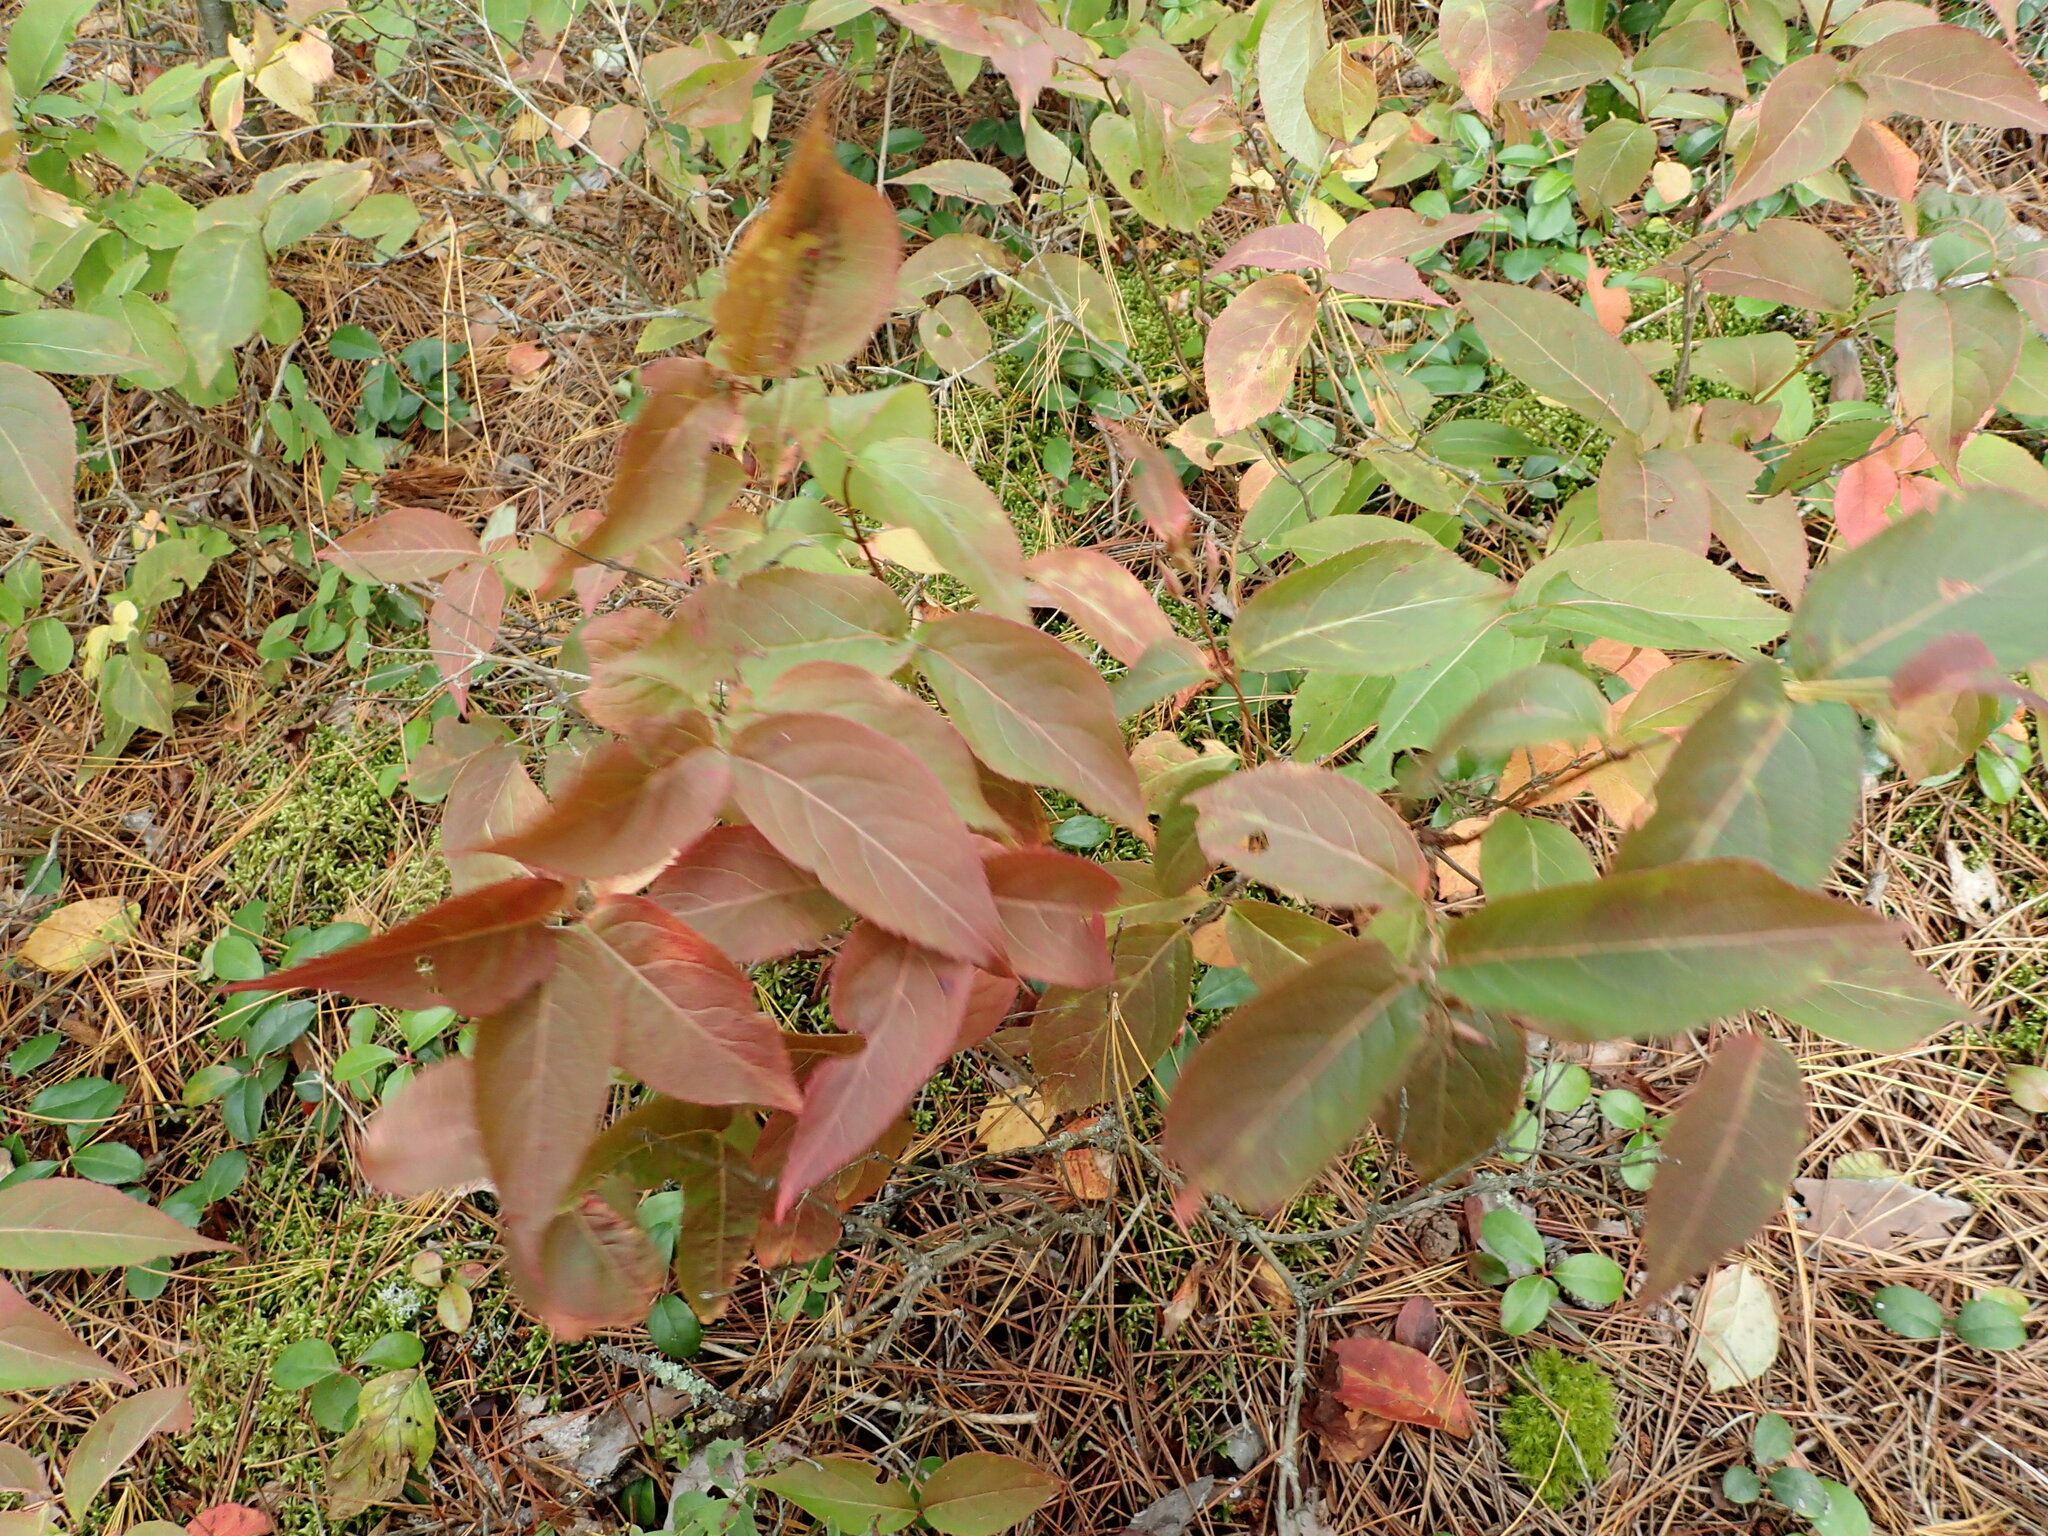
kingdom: Plantae
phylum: Tracheophyta
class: Magnoliopsida
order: Dipsacales
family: Caprifoliaceae
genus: Diervilla
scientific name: Diervilla lonicera
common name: Bush-honeysuckle
